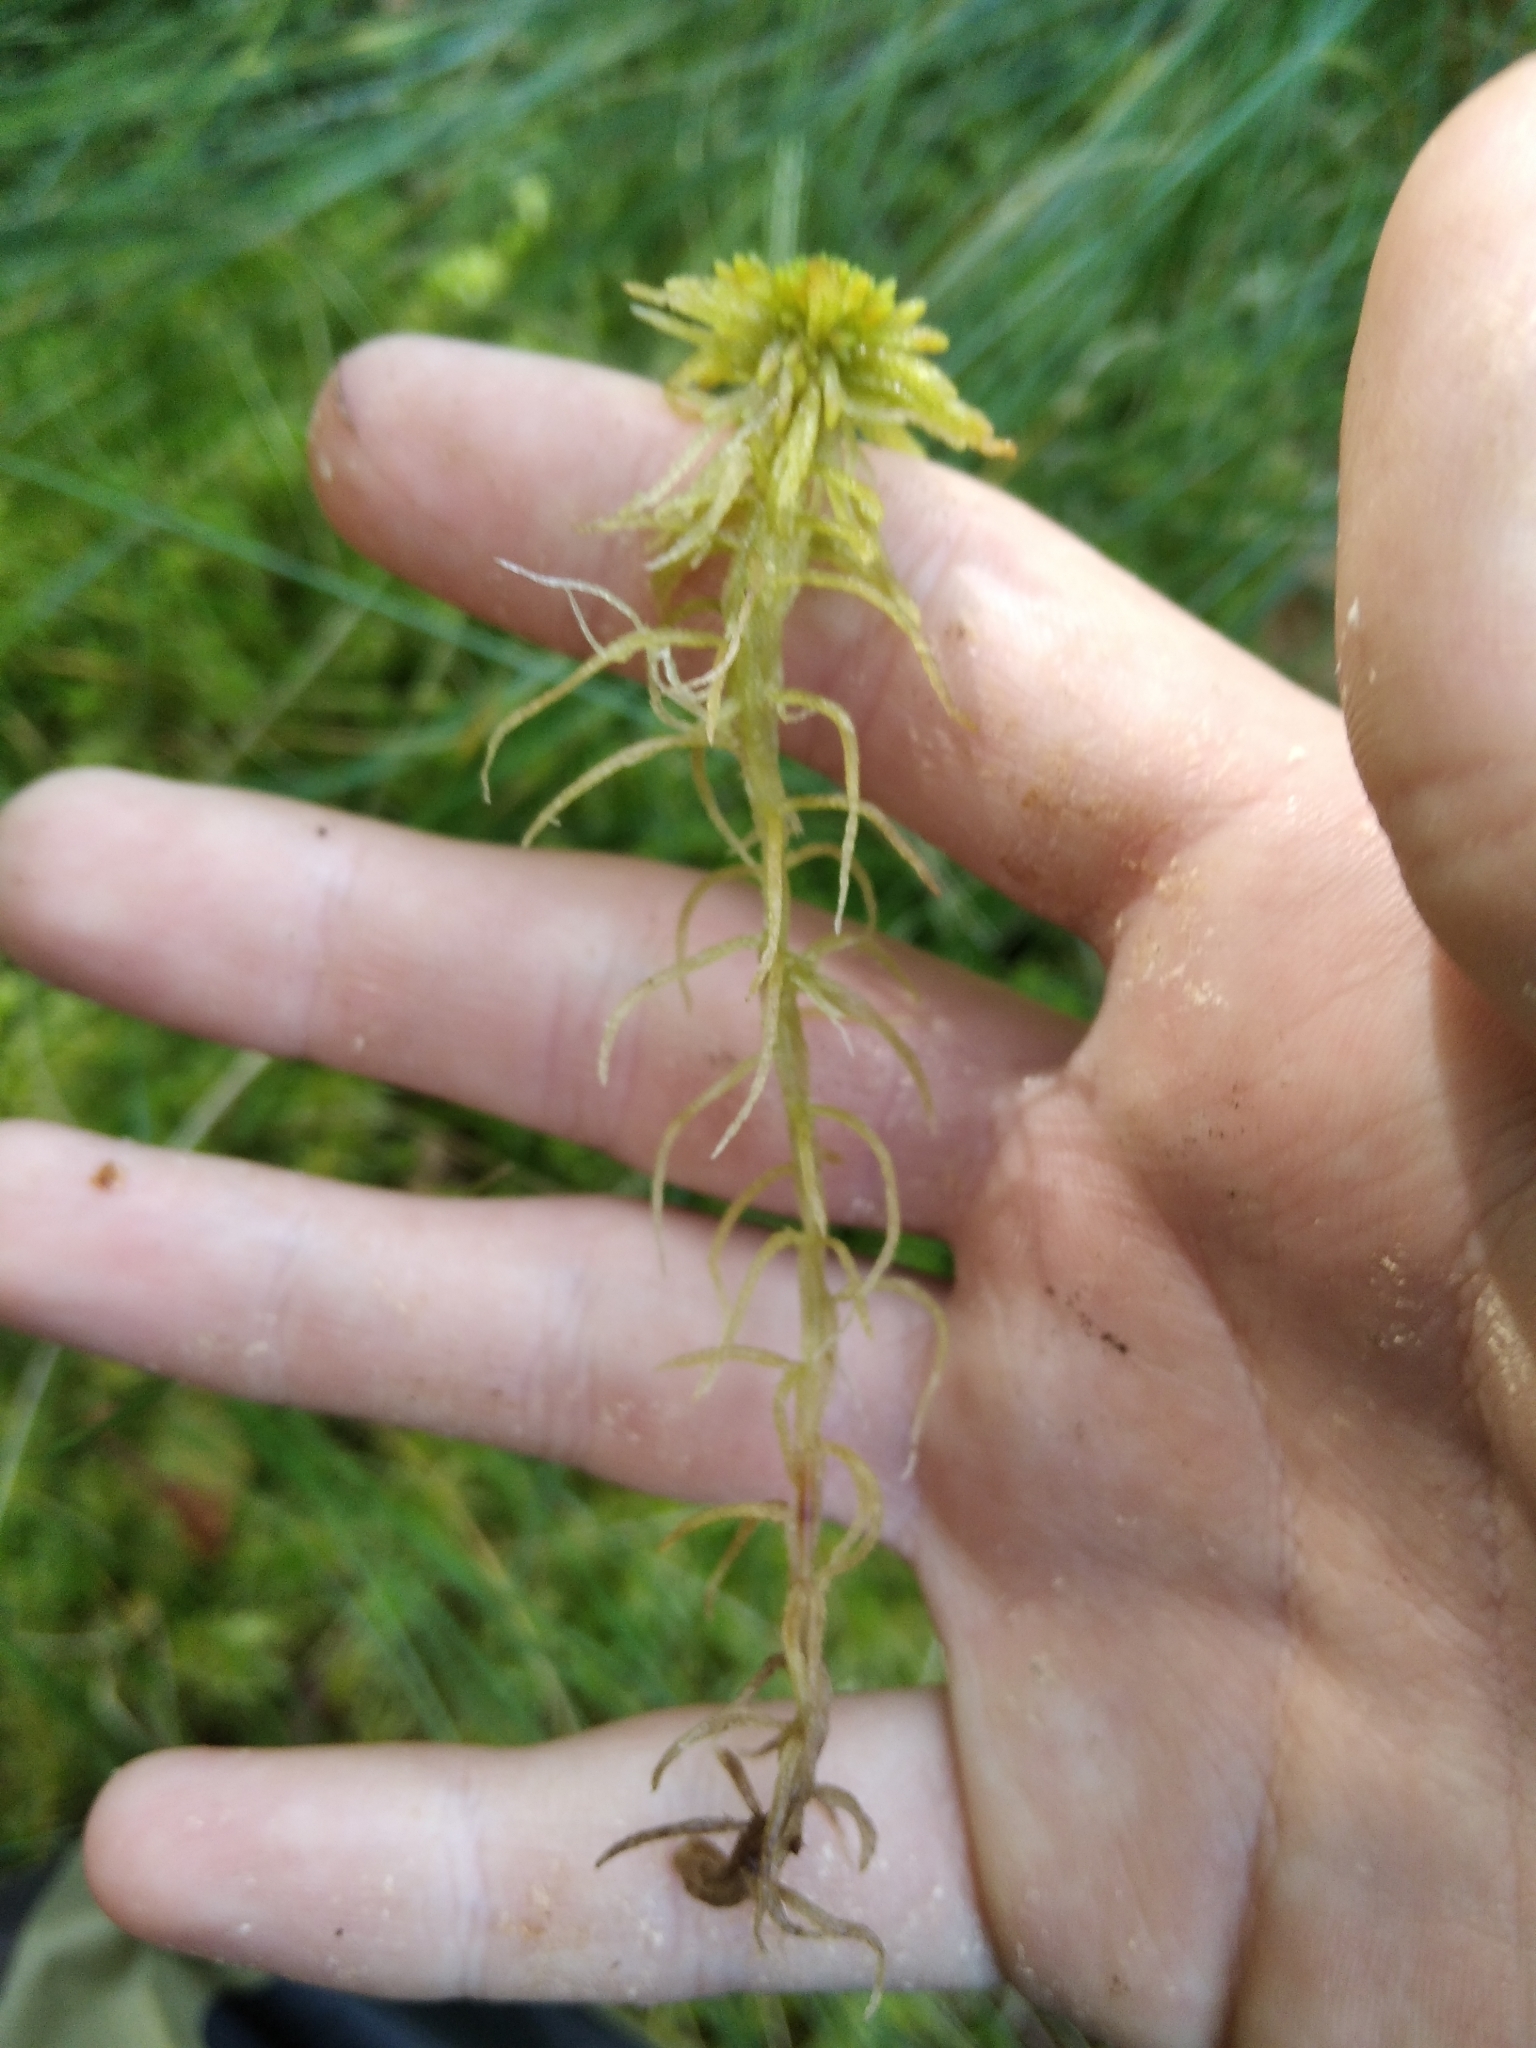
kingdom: Plantae
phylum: Bryophyta
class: Sphagnopsida
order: Sphagnales
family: Sphagnaceae
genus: Sphagnum
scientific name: Sphagnum quinquefarium
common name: Five-ranked peat moss
